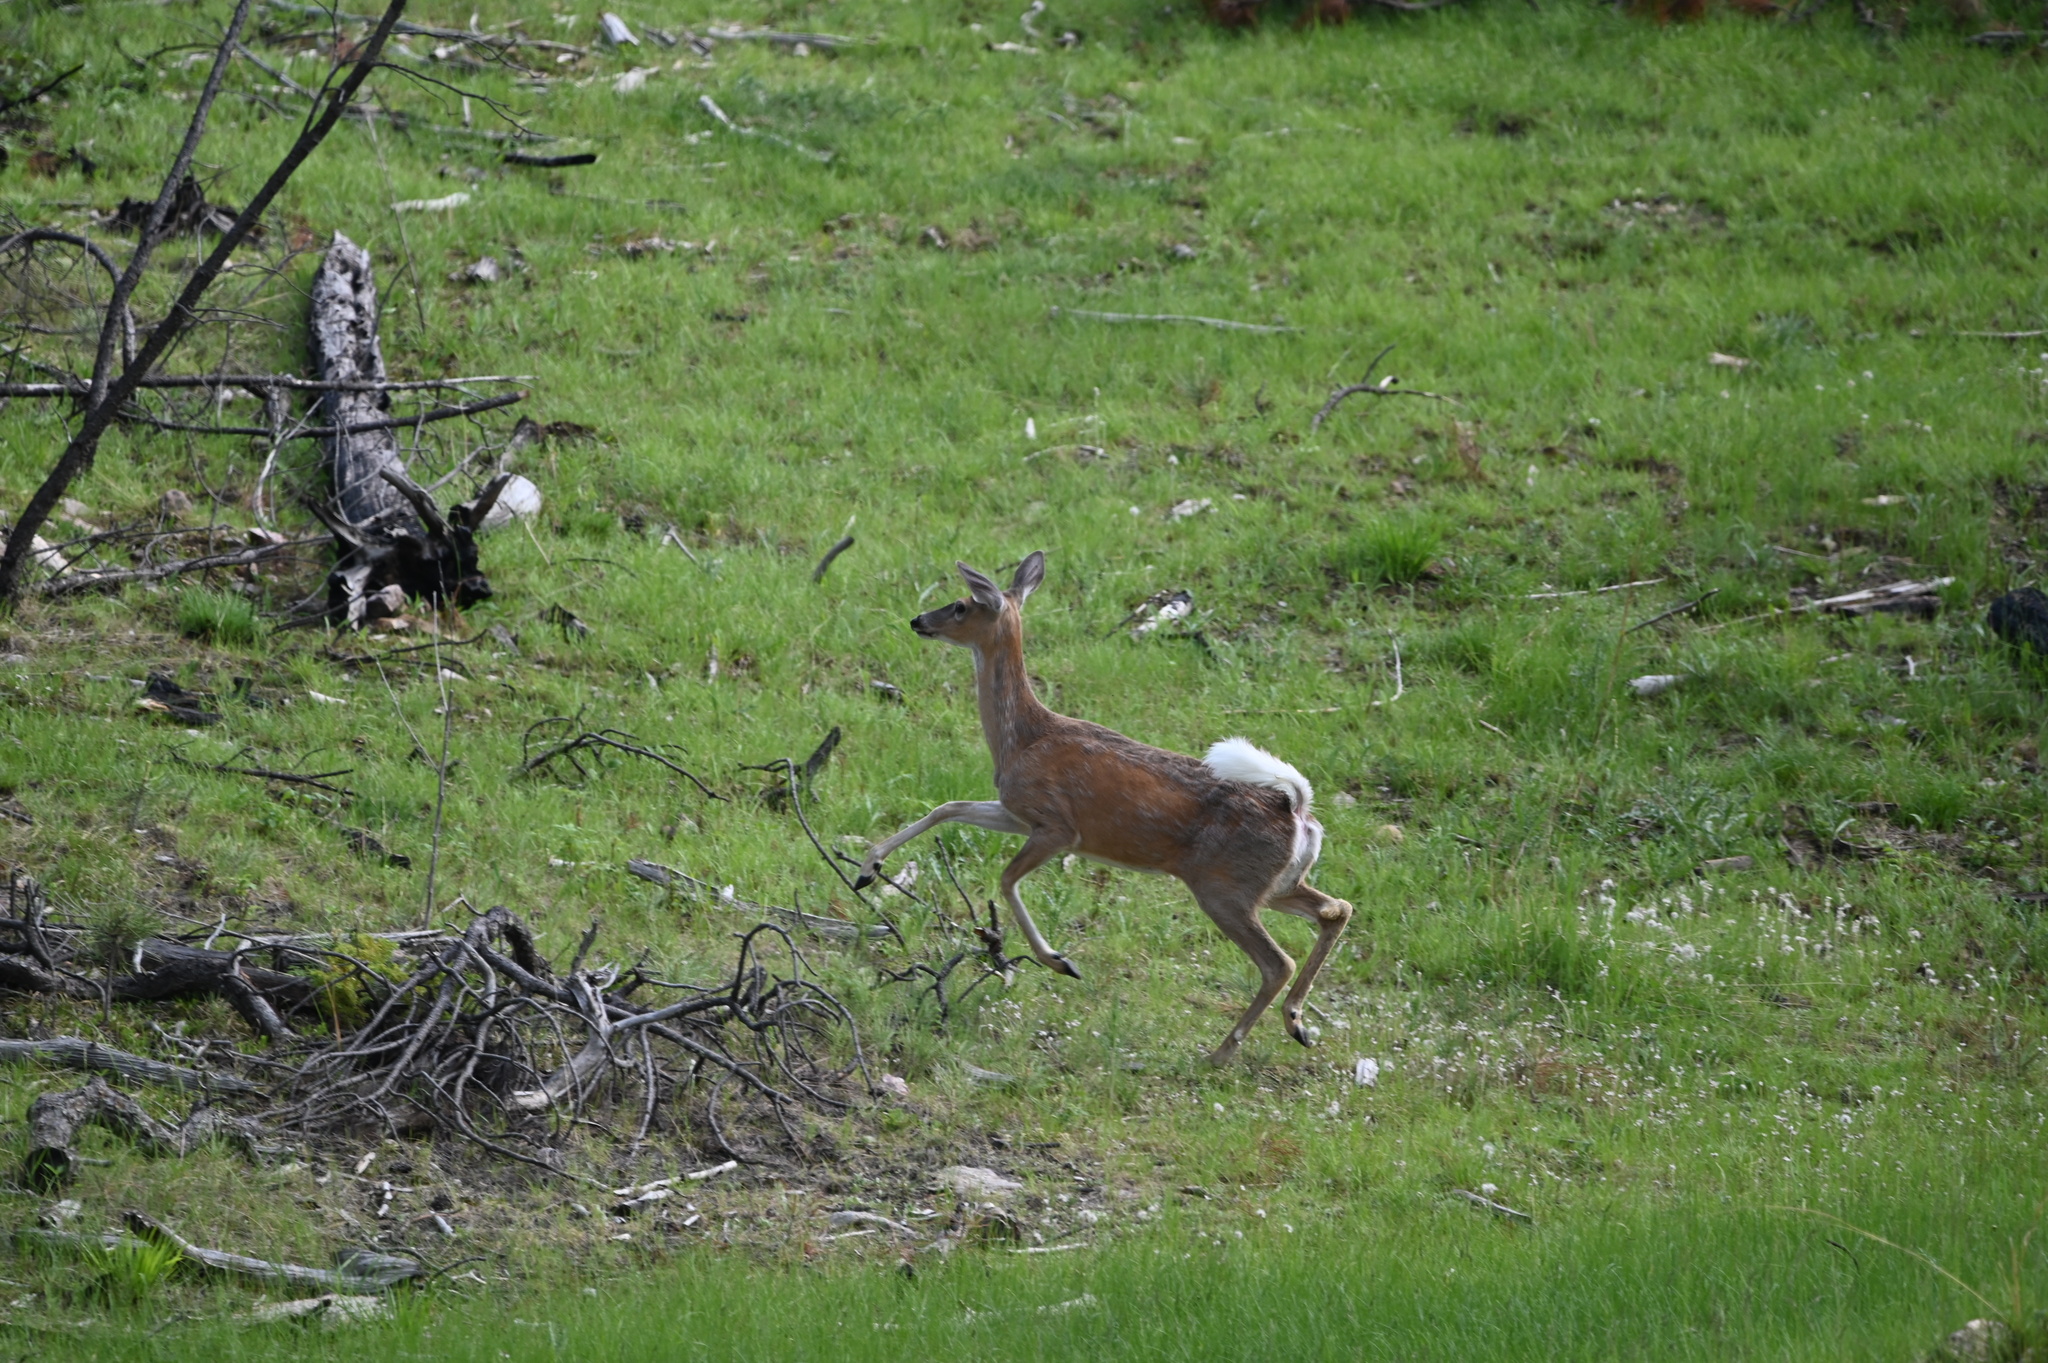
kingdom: Animalia
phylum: Chordata
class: Mammalia
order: Artiodactyla
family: Cervidae
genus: Odocoileus
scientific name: Odocoileus virginianus
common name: White-tailed deer
